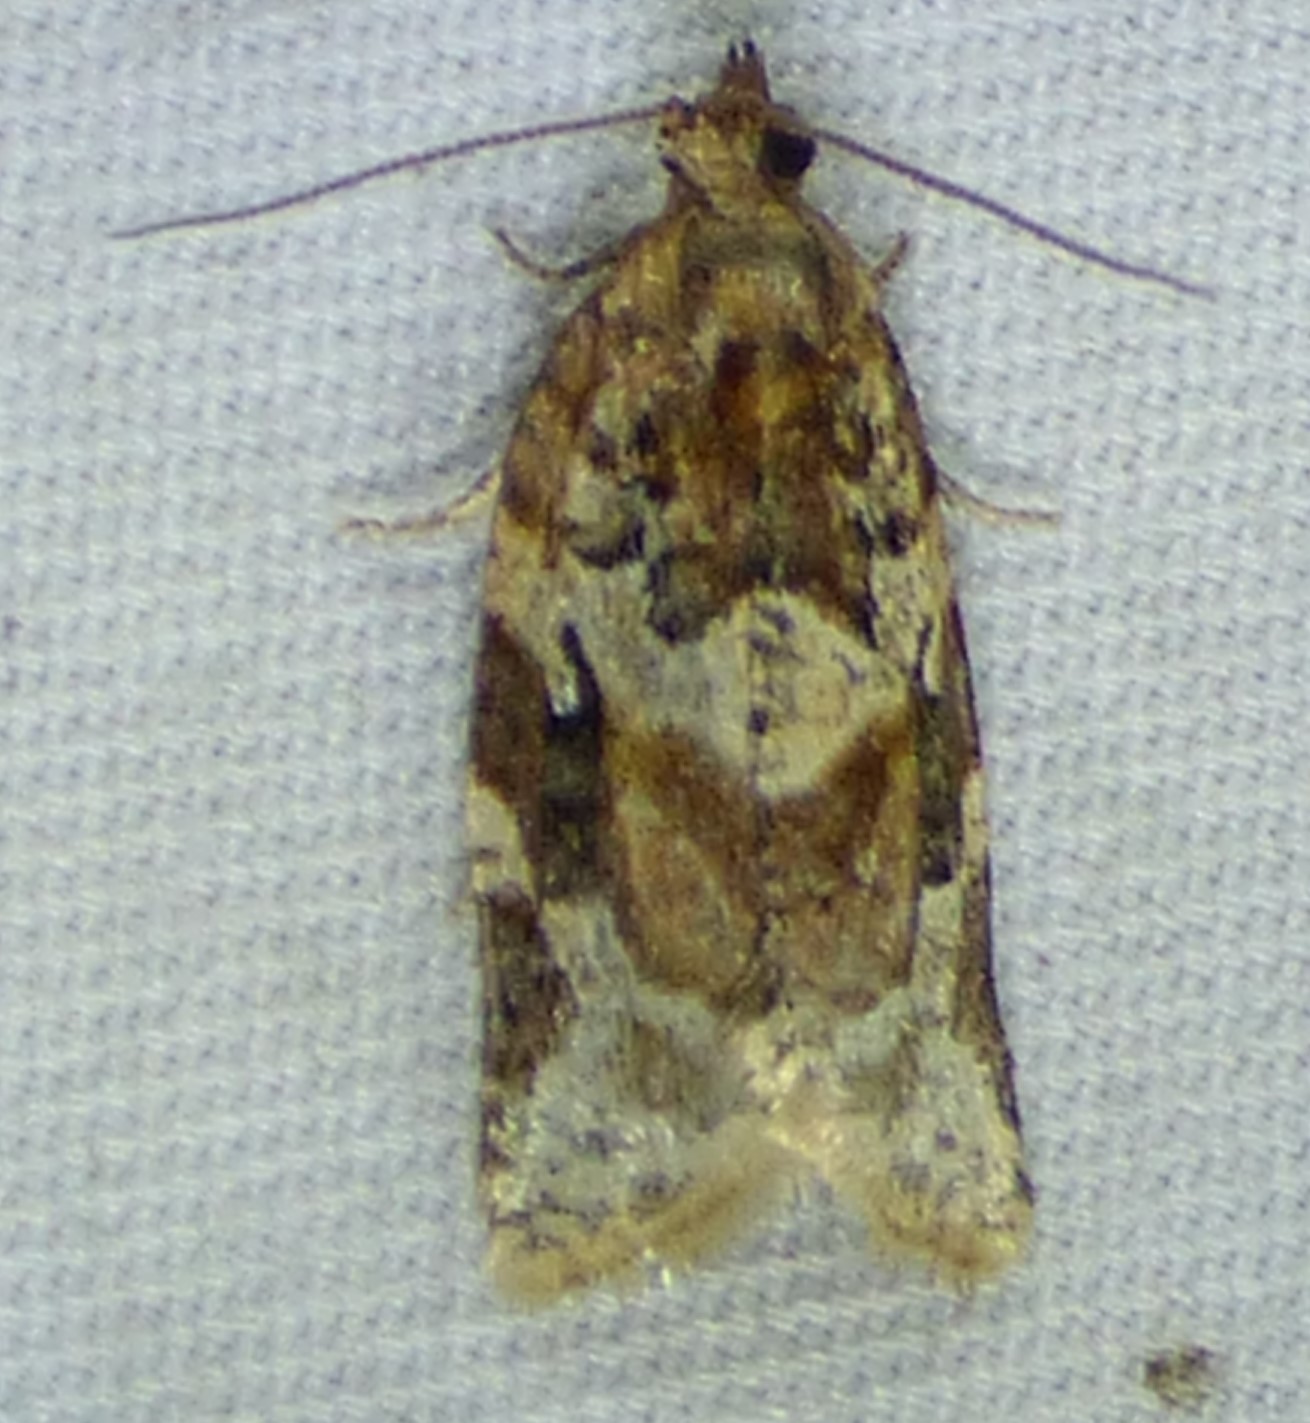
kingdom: Animalia
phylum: Arthropoda
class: Insecta
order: Lepidoptera
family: Tortricidae
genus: Argyrotaenia
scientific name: Argyrotaenia velutinana
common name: Red-banded leafroller moth
